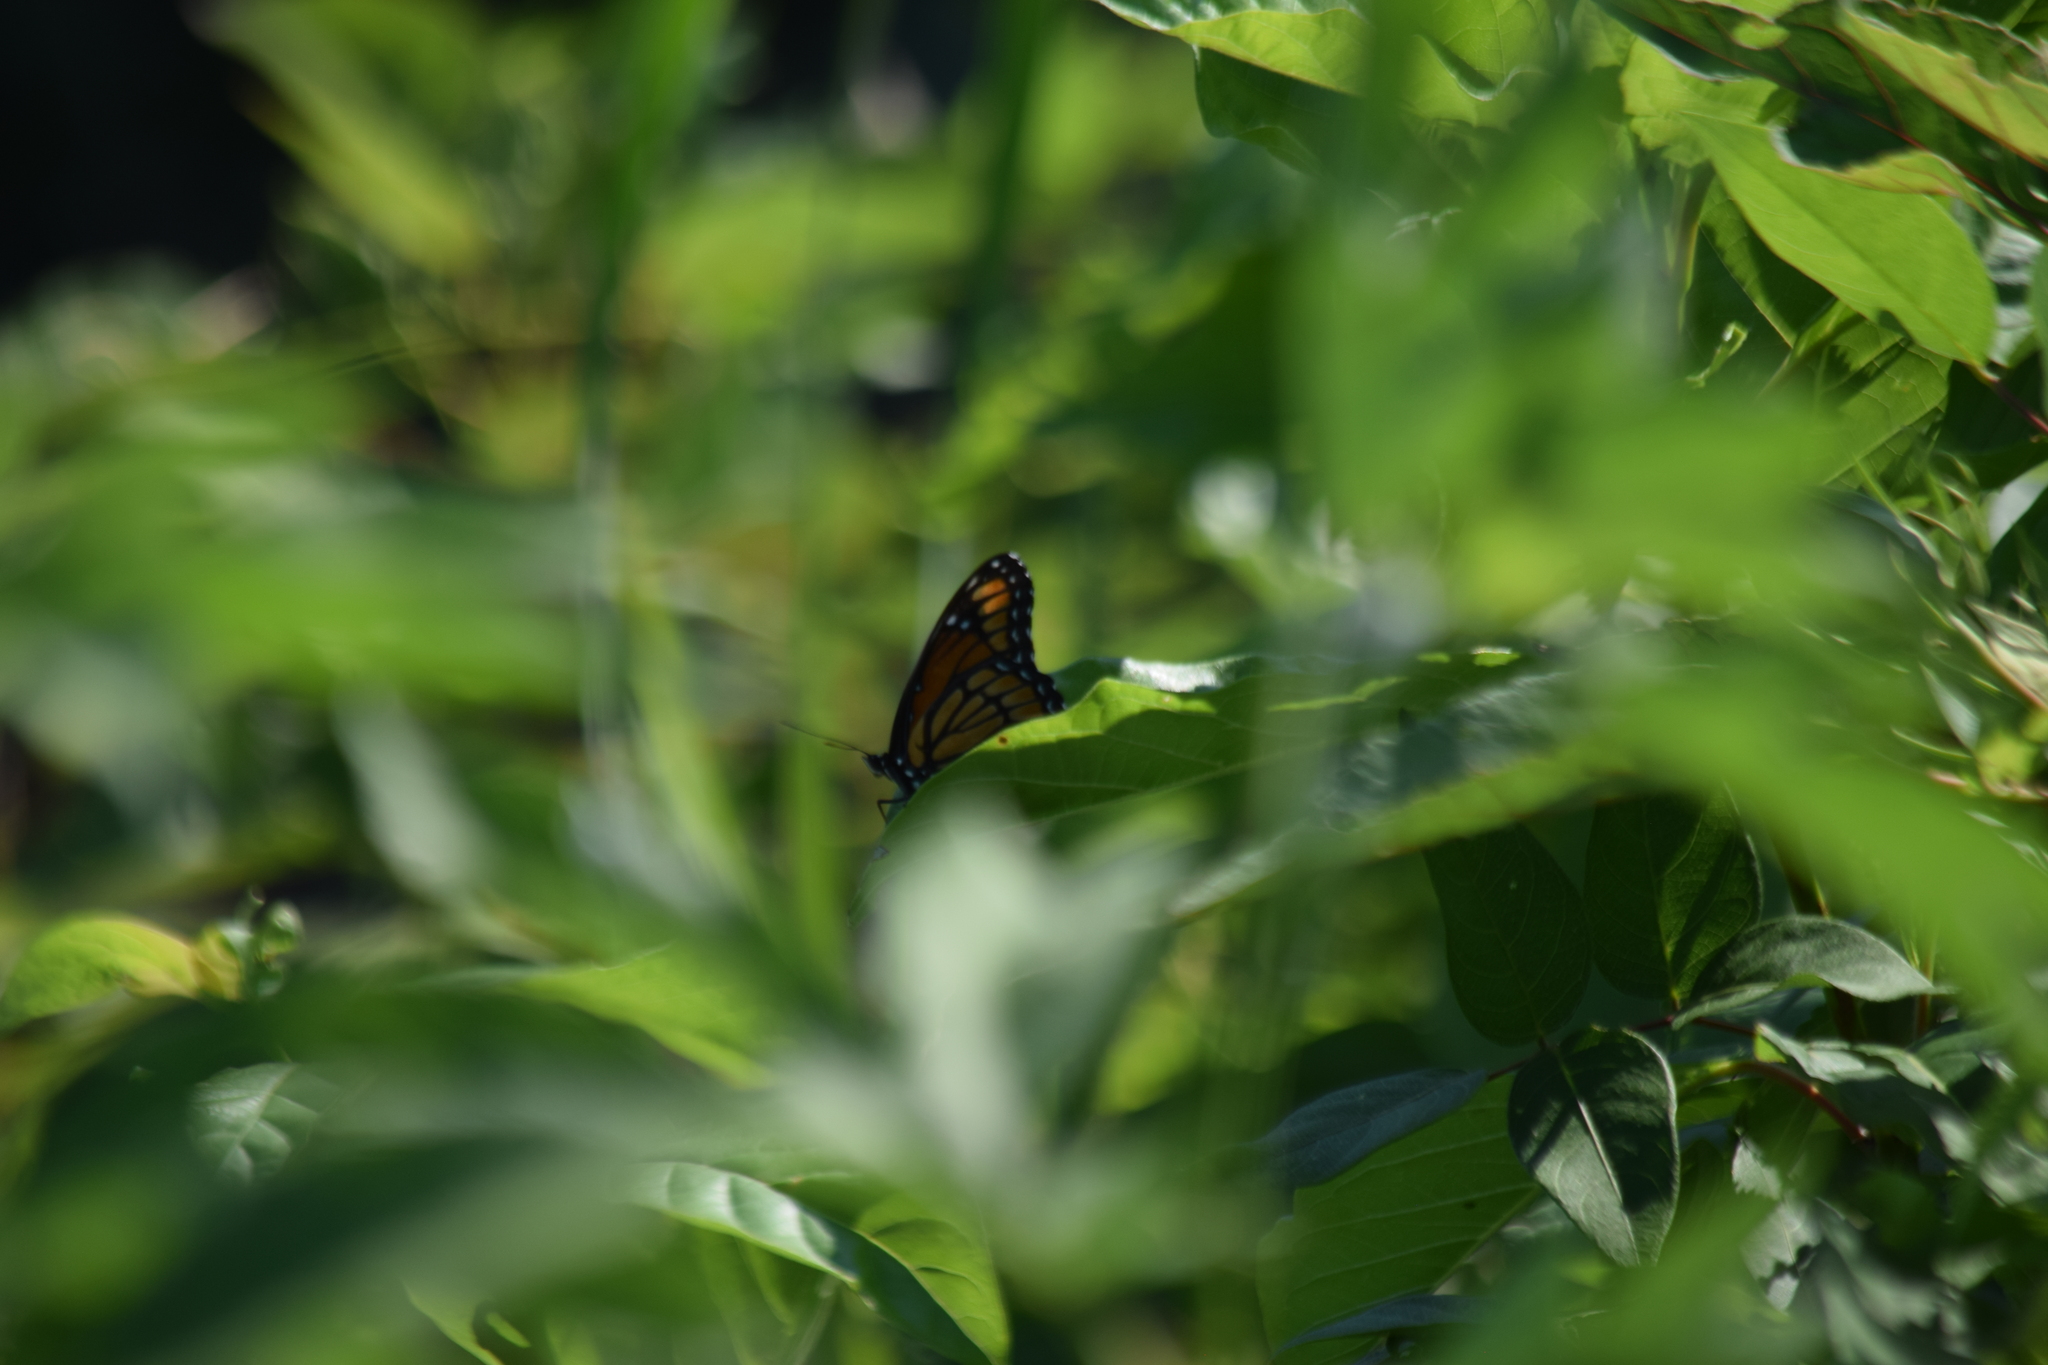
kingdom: Animalia
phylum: Arthropoda
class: Insecta
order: Lepidoptera
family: Nymphalidae
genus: Limenitis
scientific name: Limenitis archippus
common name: Viceroy
